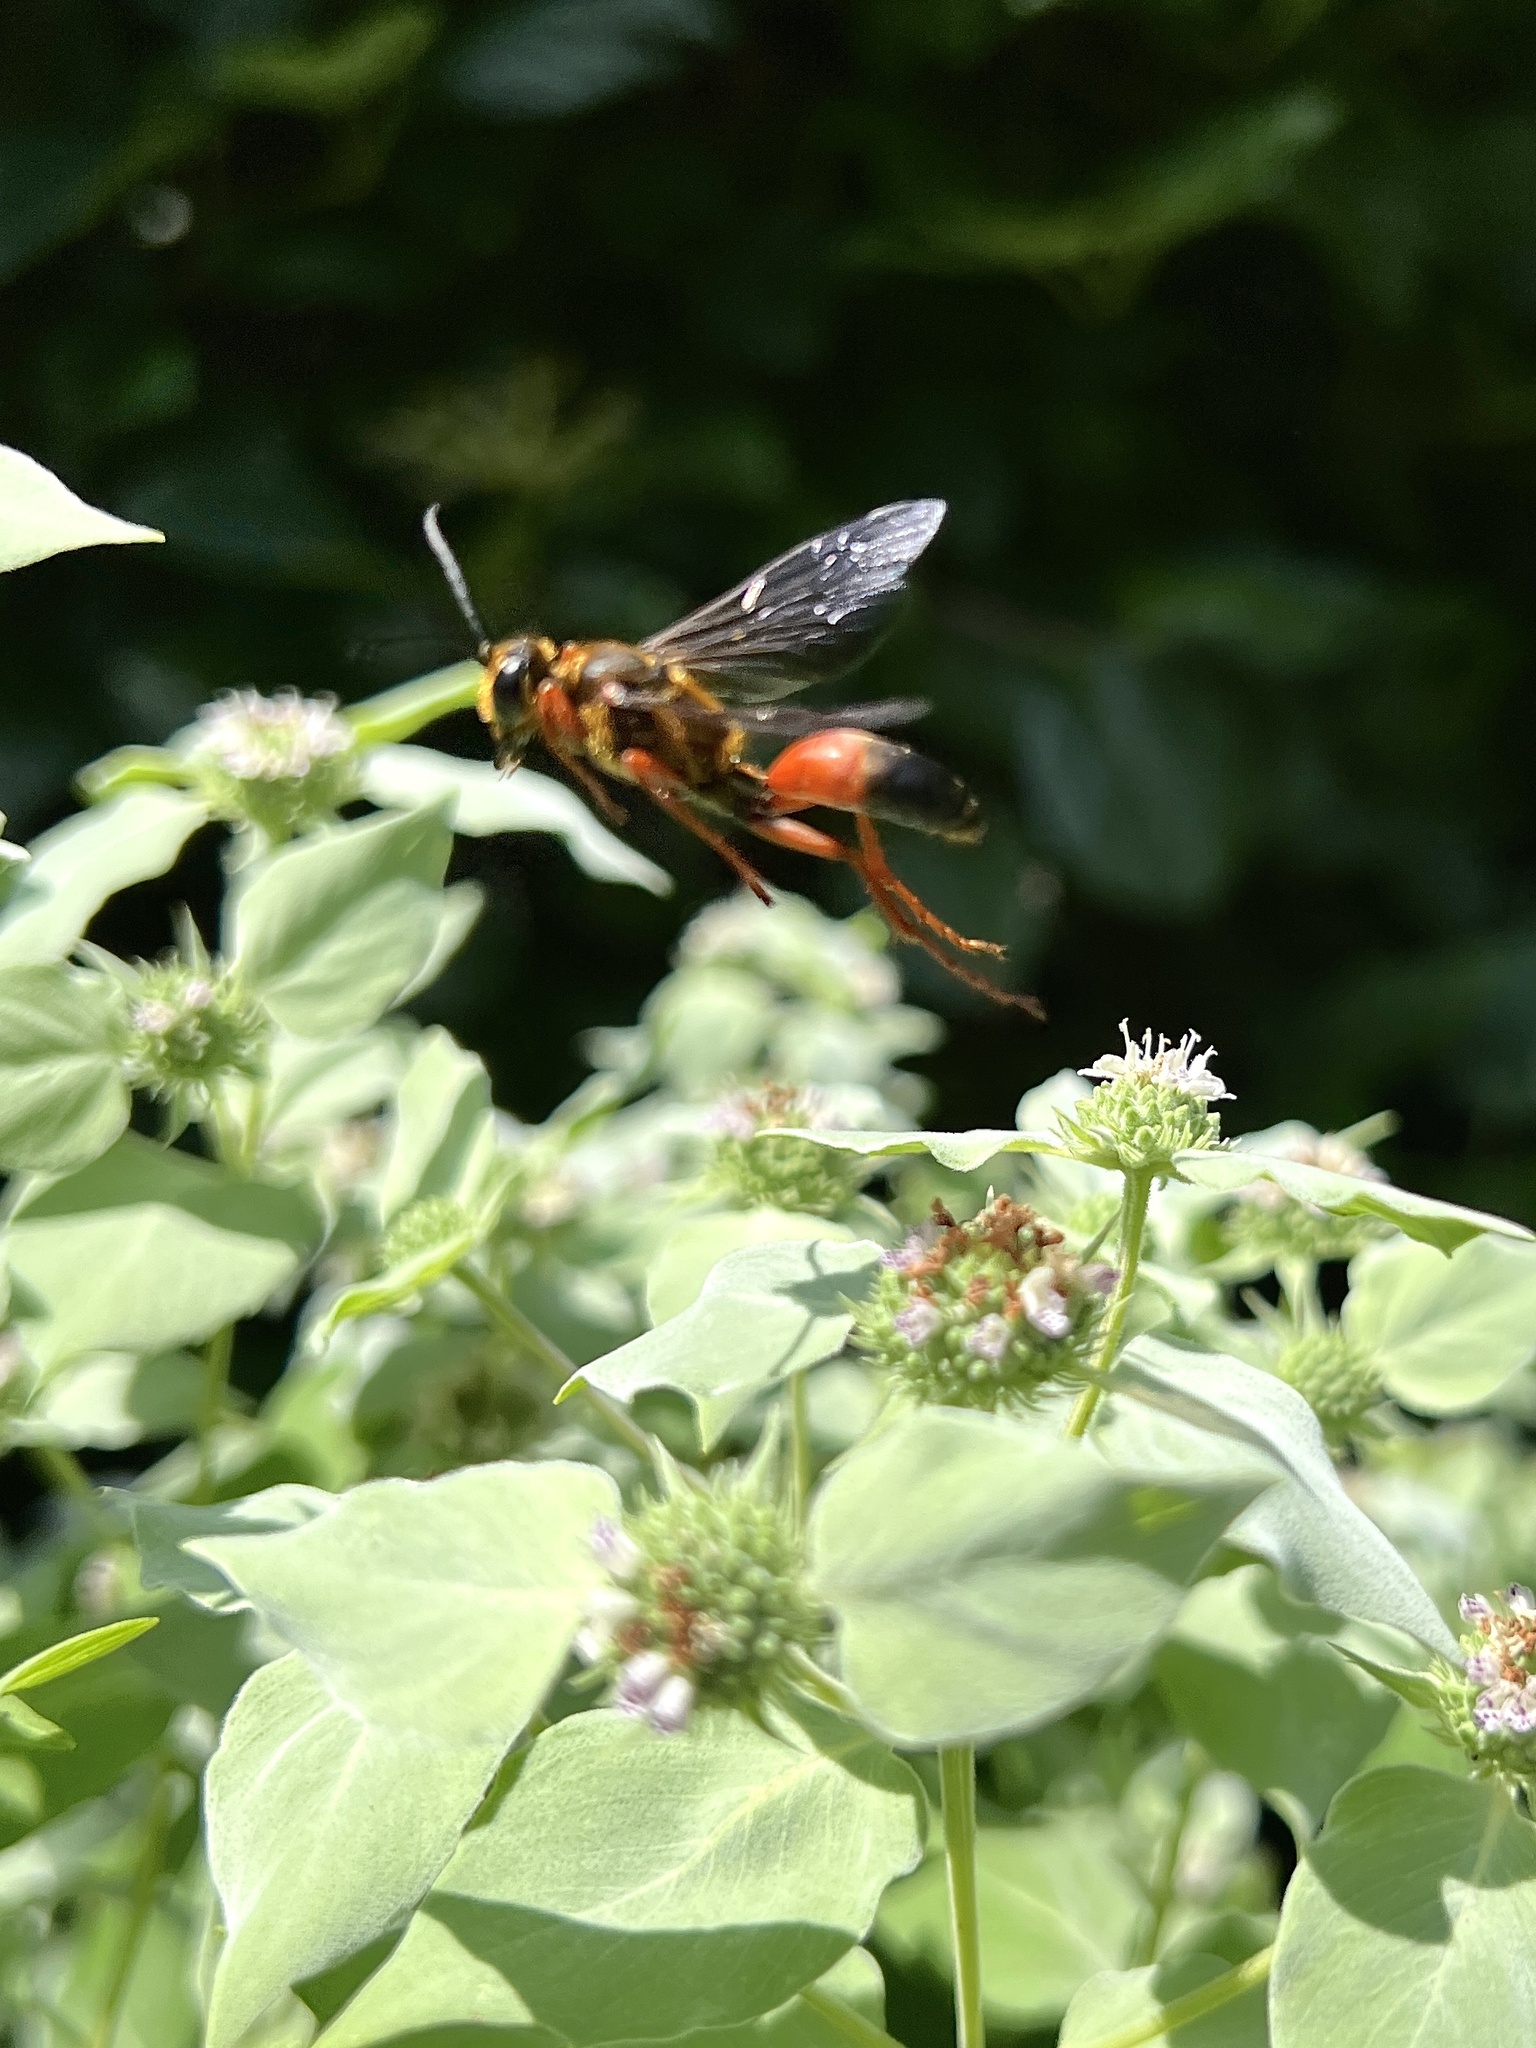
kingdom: Animalia
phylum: Arthropoda
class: Insecta
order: Hymenoptera
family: Sphecidae
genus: Sphex
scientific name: Sphex ichneumoneus
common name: Great golden digger wasp
